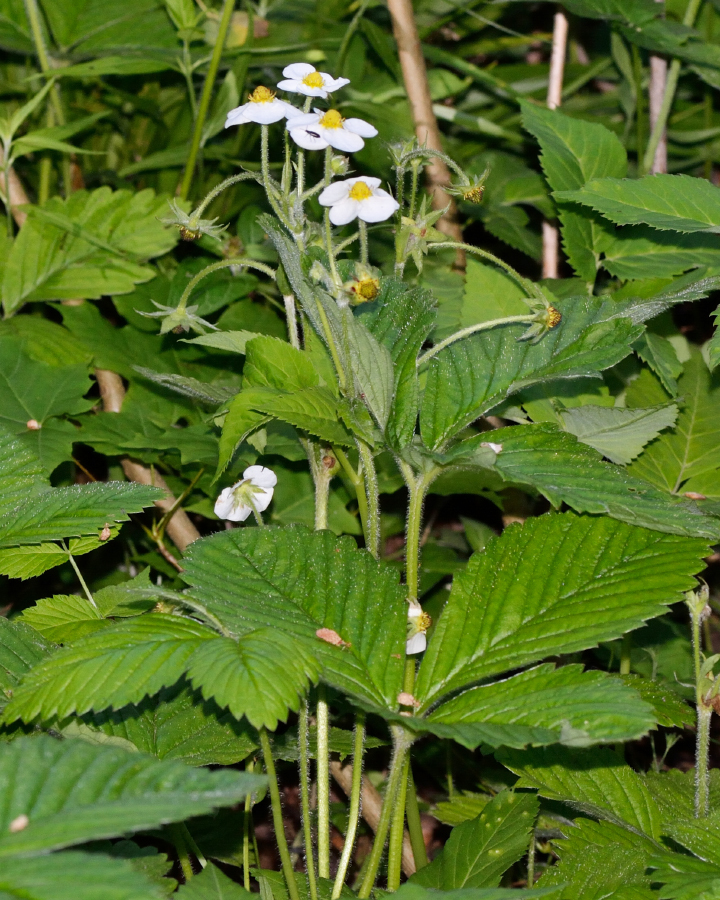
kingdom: Plantae
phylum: Tracheophyta
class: Magnoliopsida
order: Rosales
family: Rosaceae
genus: Fragaria
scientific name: Fragaria moschata
